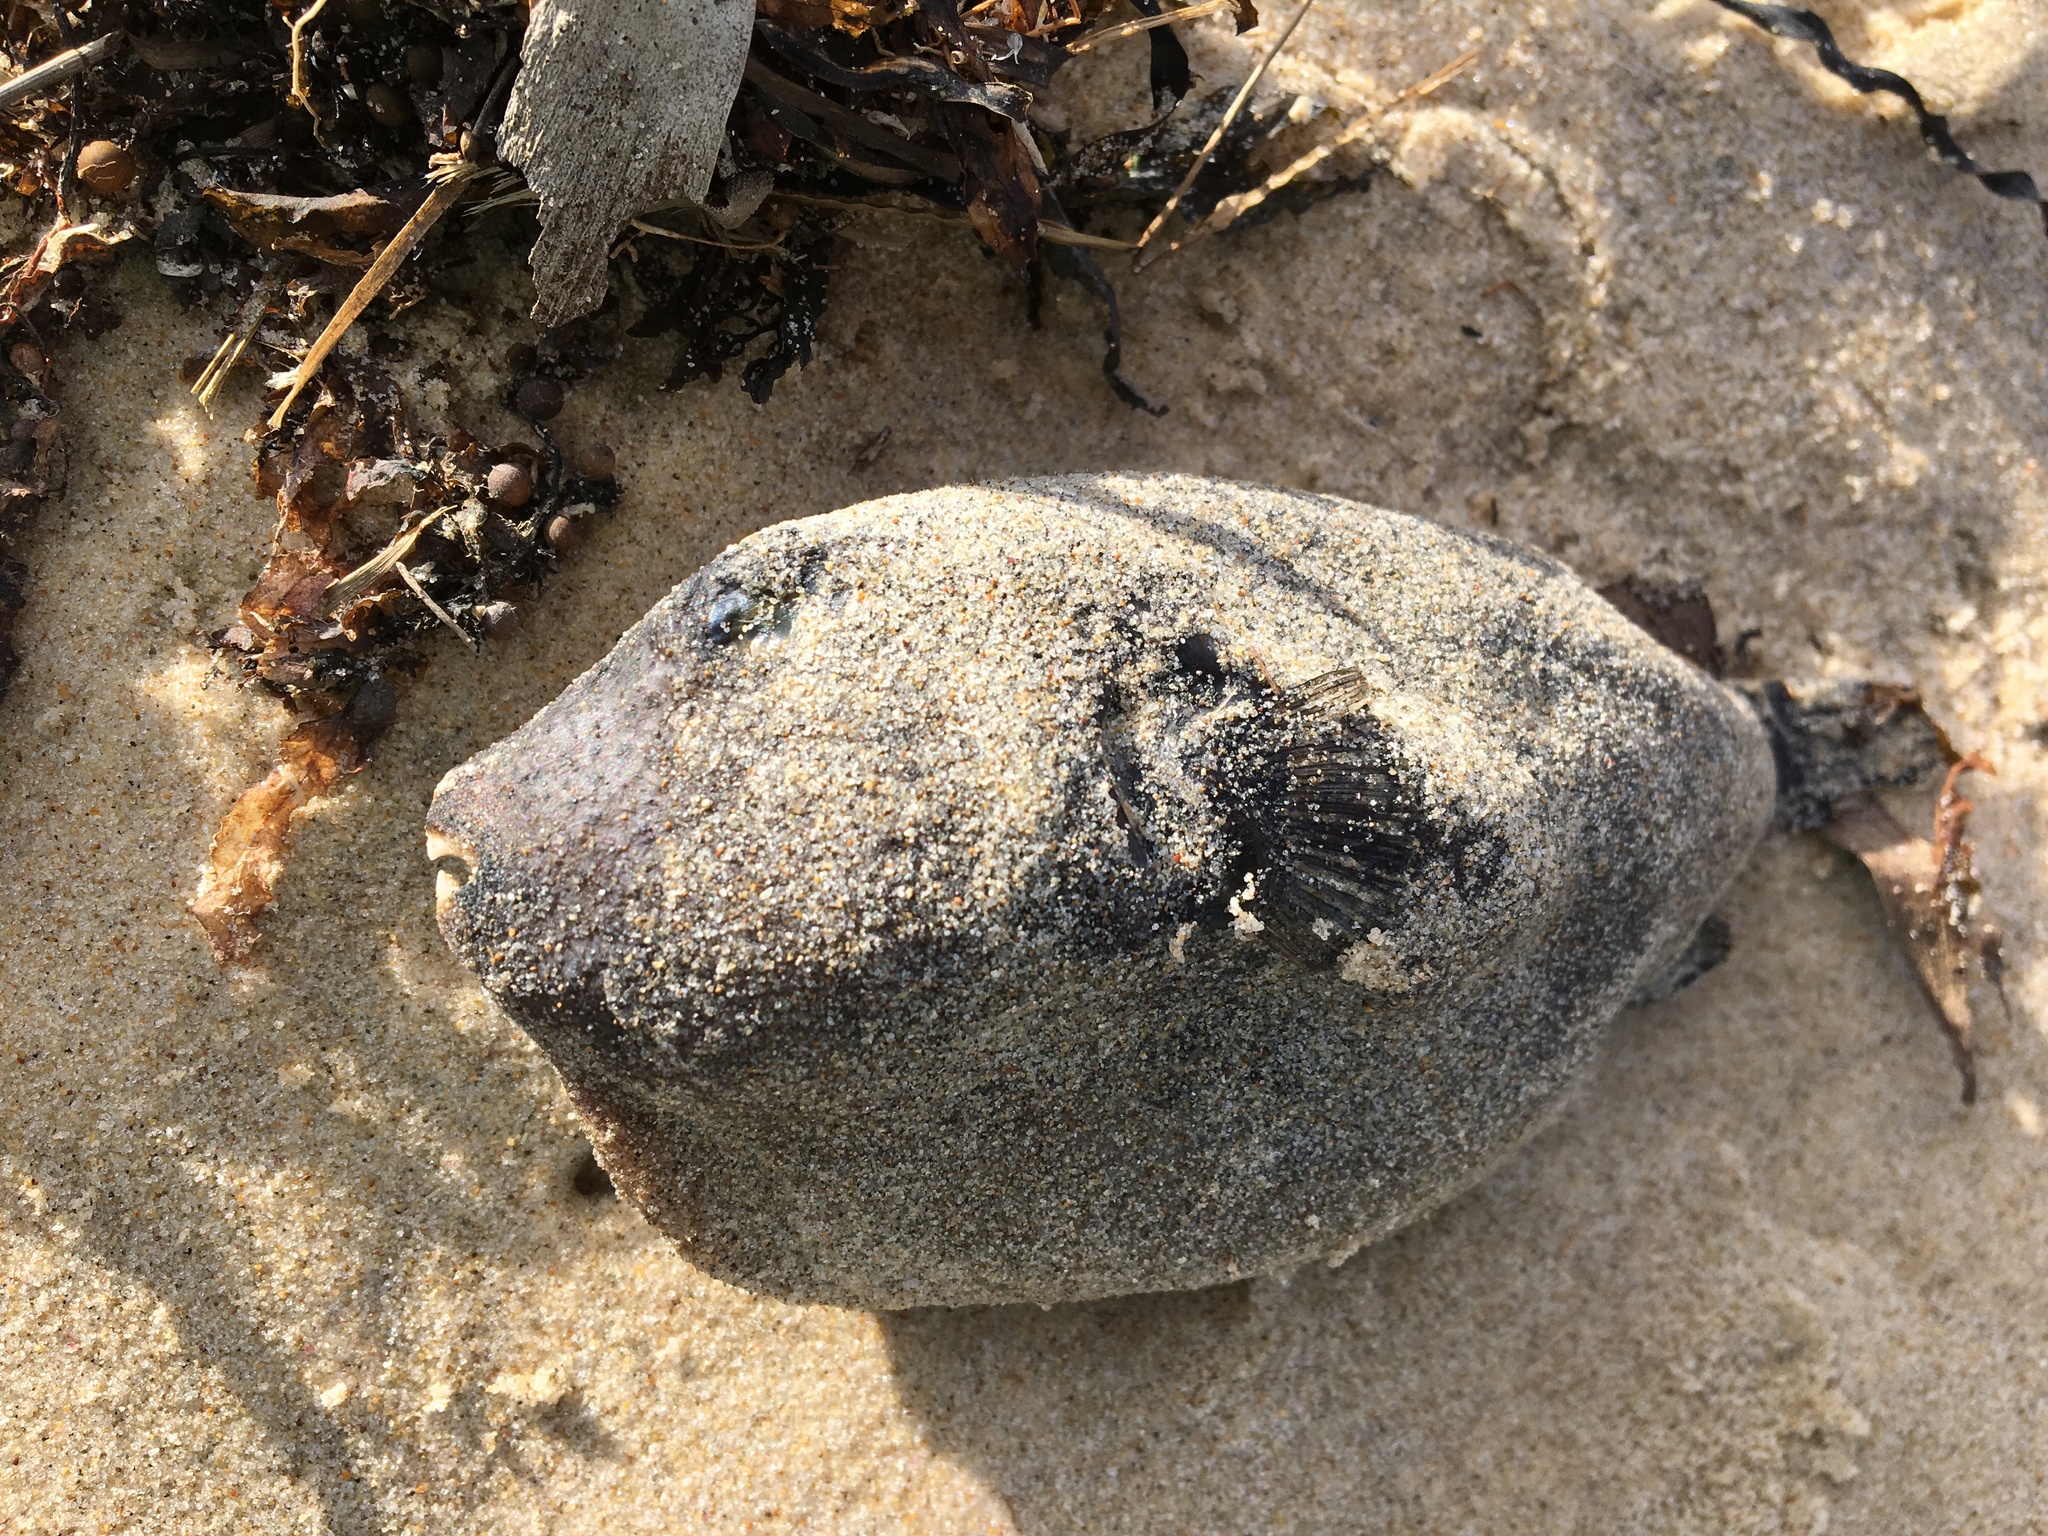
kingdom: Animalia
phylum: Chordata
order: Tetraodontiformes
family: Tetraodontidae
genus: Arothron
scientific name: Arothron stellatus
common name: Star blaasop
